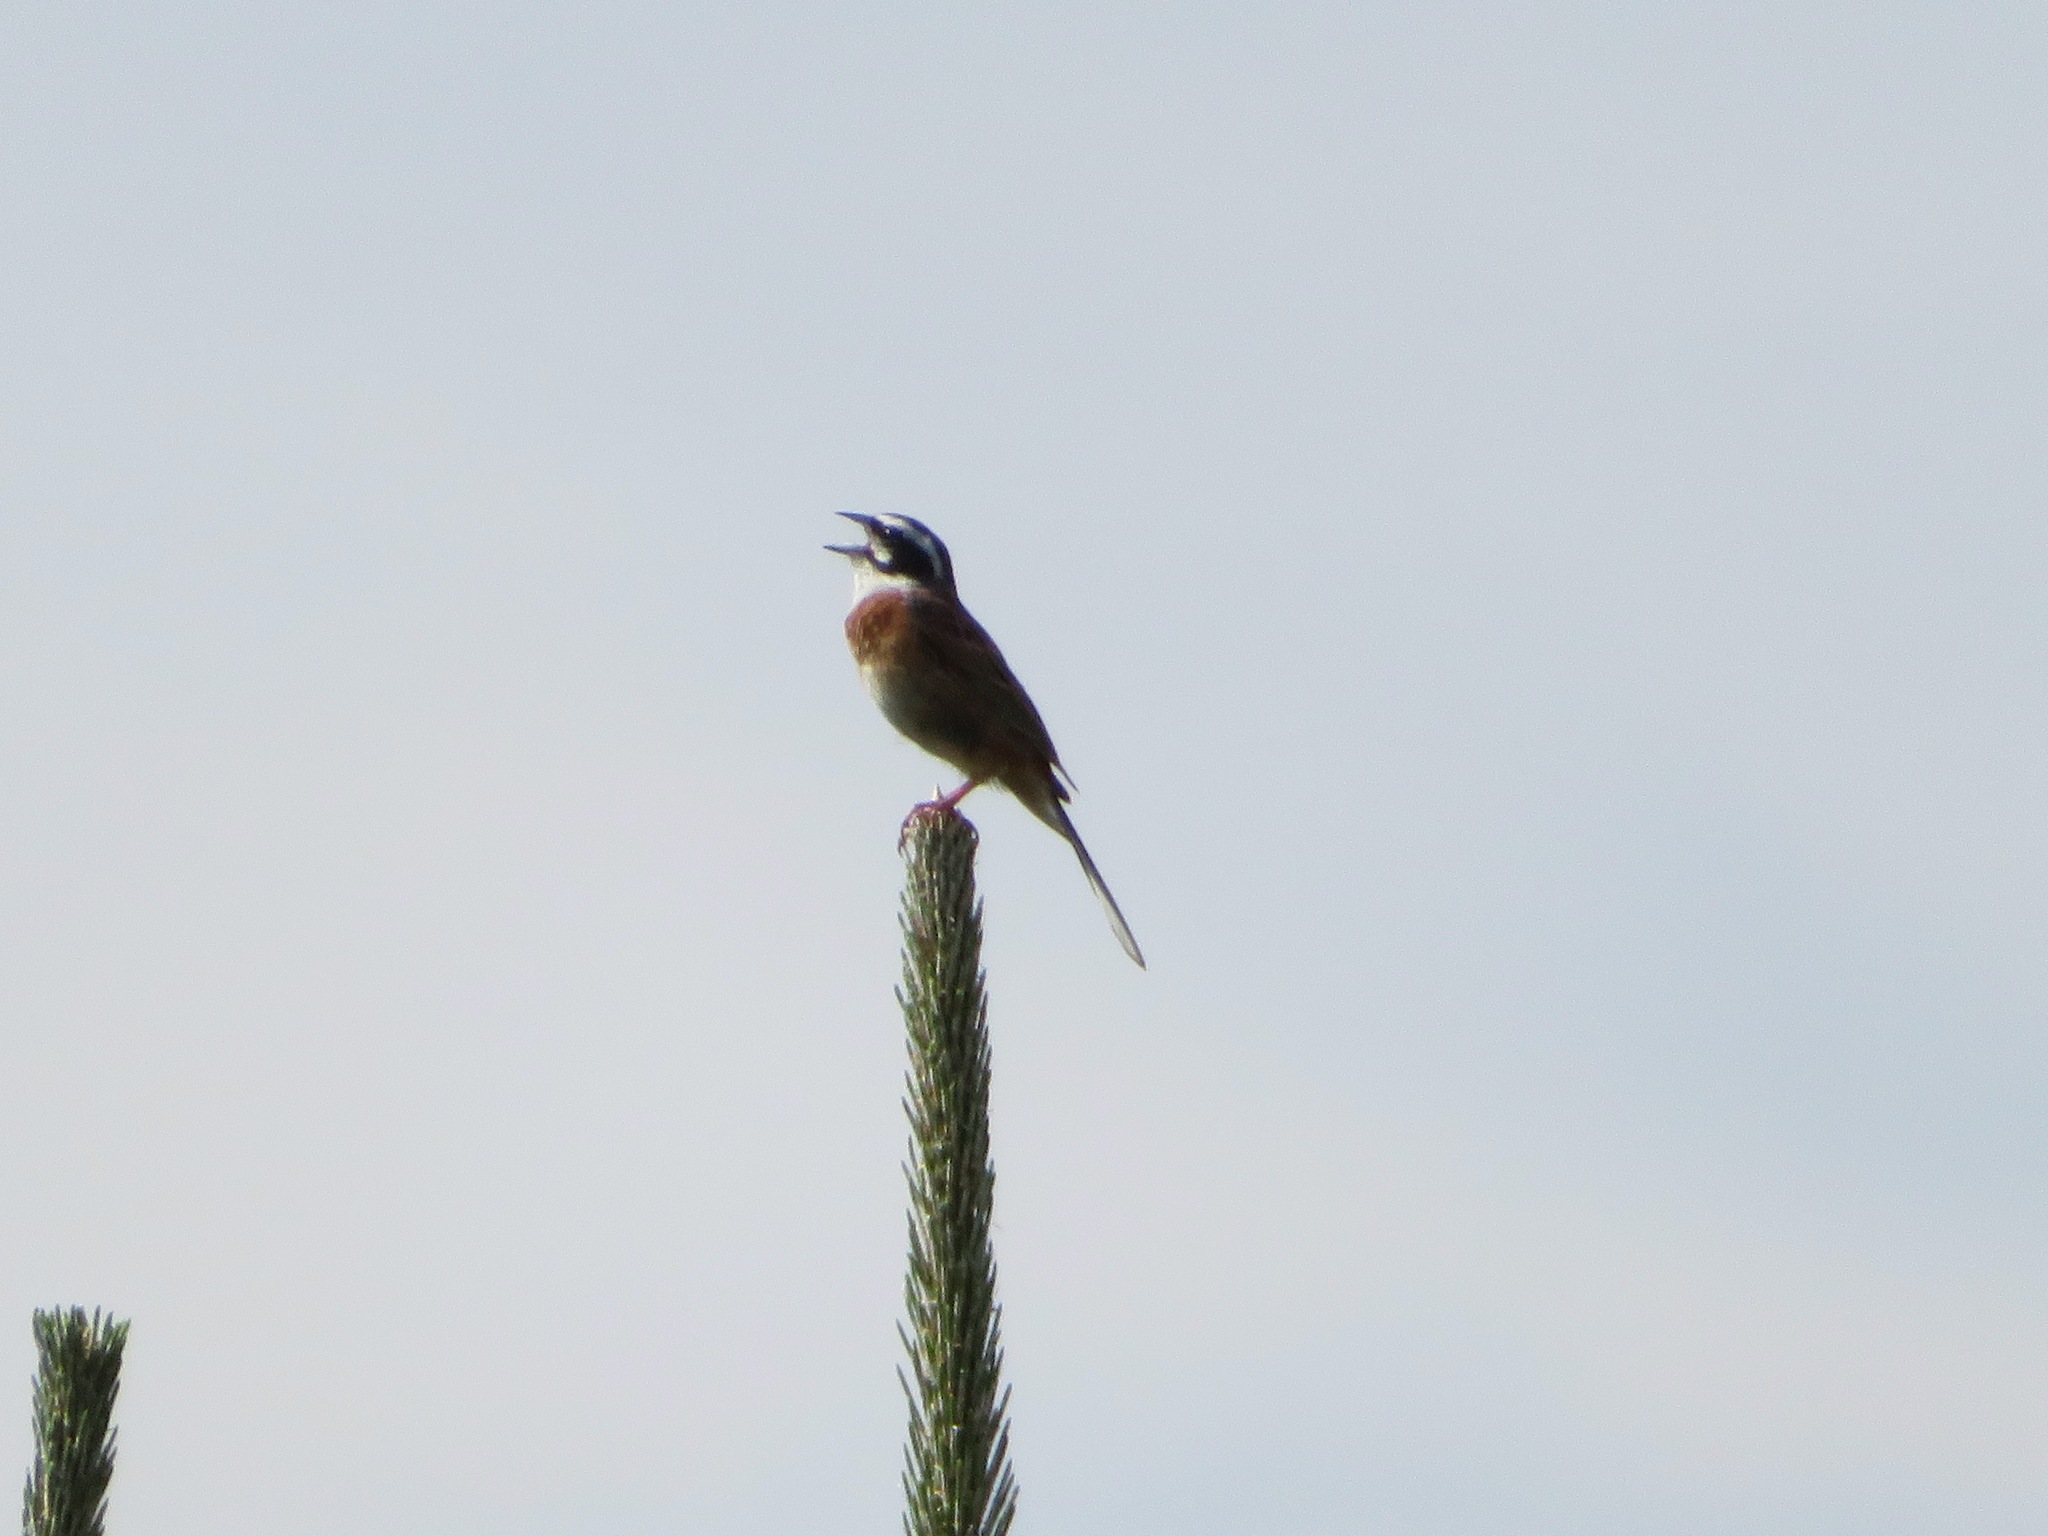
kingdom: Animalia
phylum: Chordata
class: Aves
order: Passeriformes
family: Emberizidae
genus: Emberiza
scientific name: Emberiza cioides
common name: Meadow bunting
